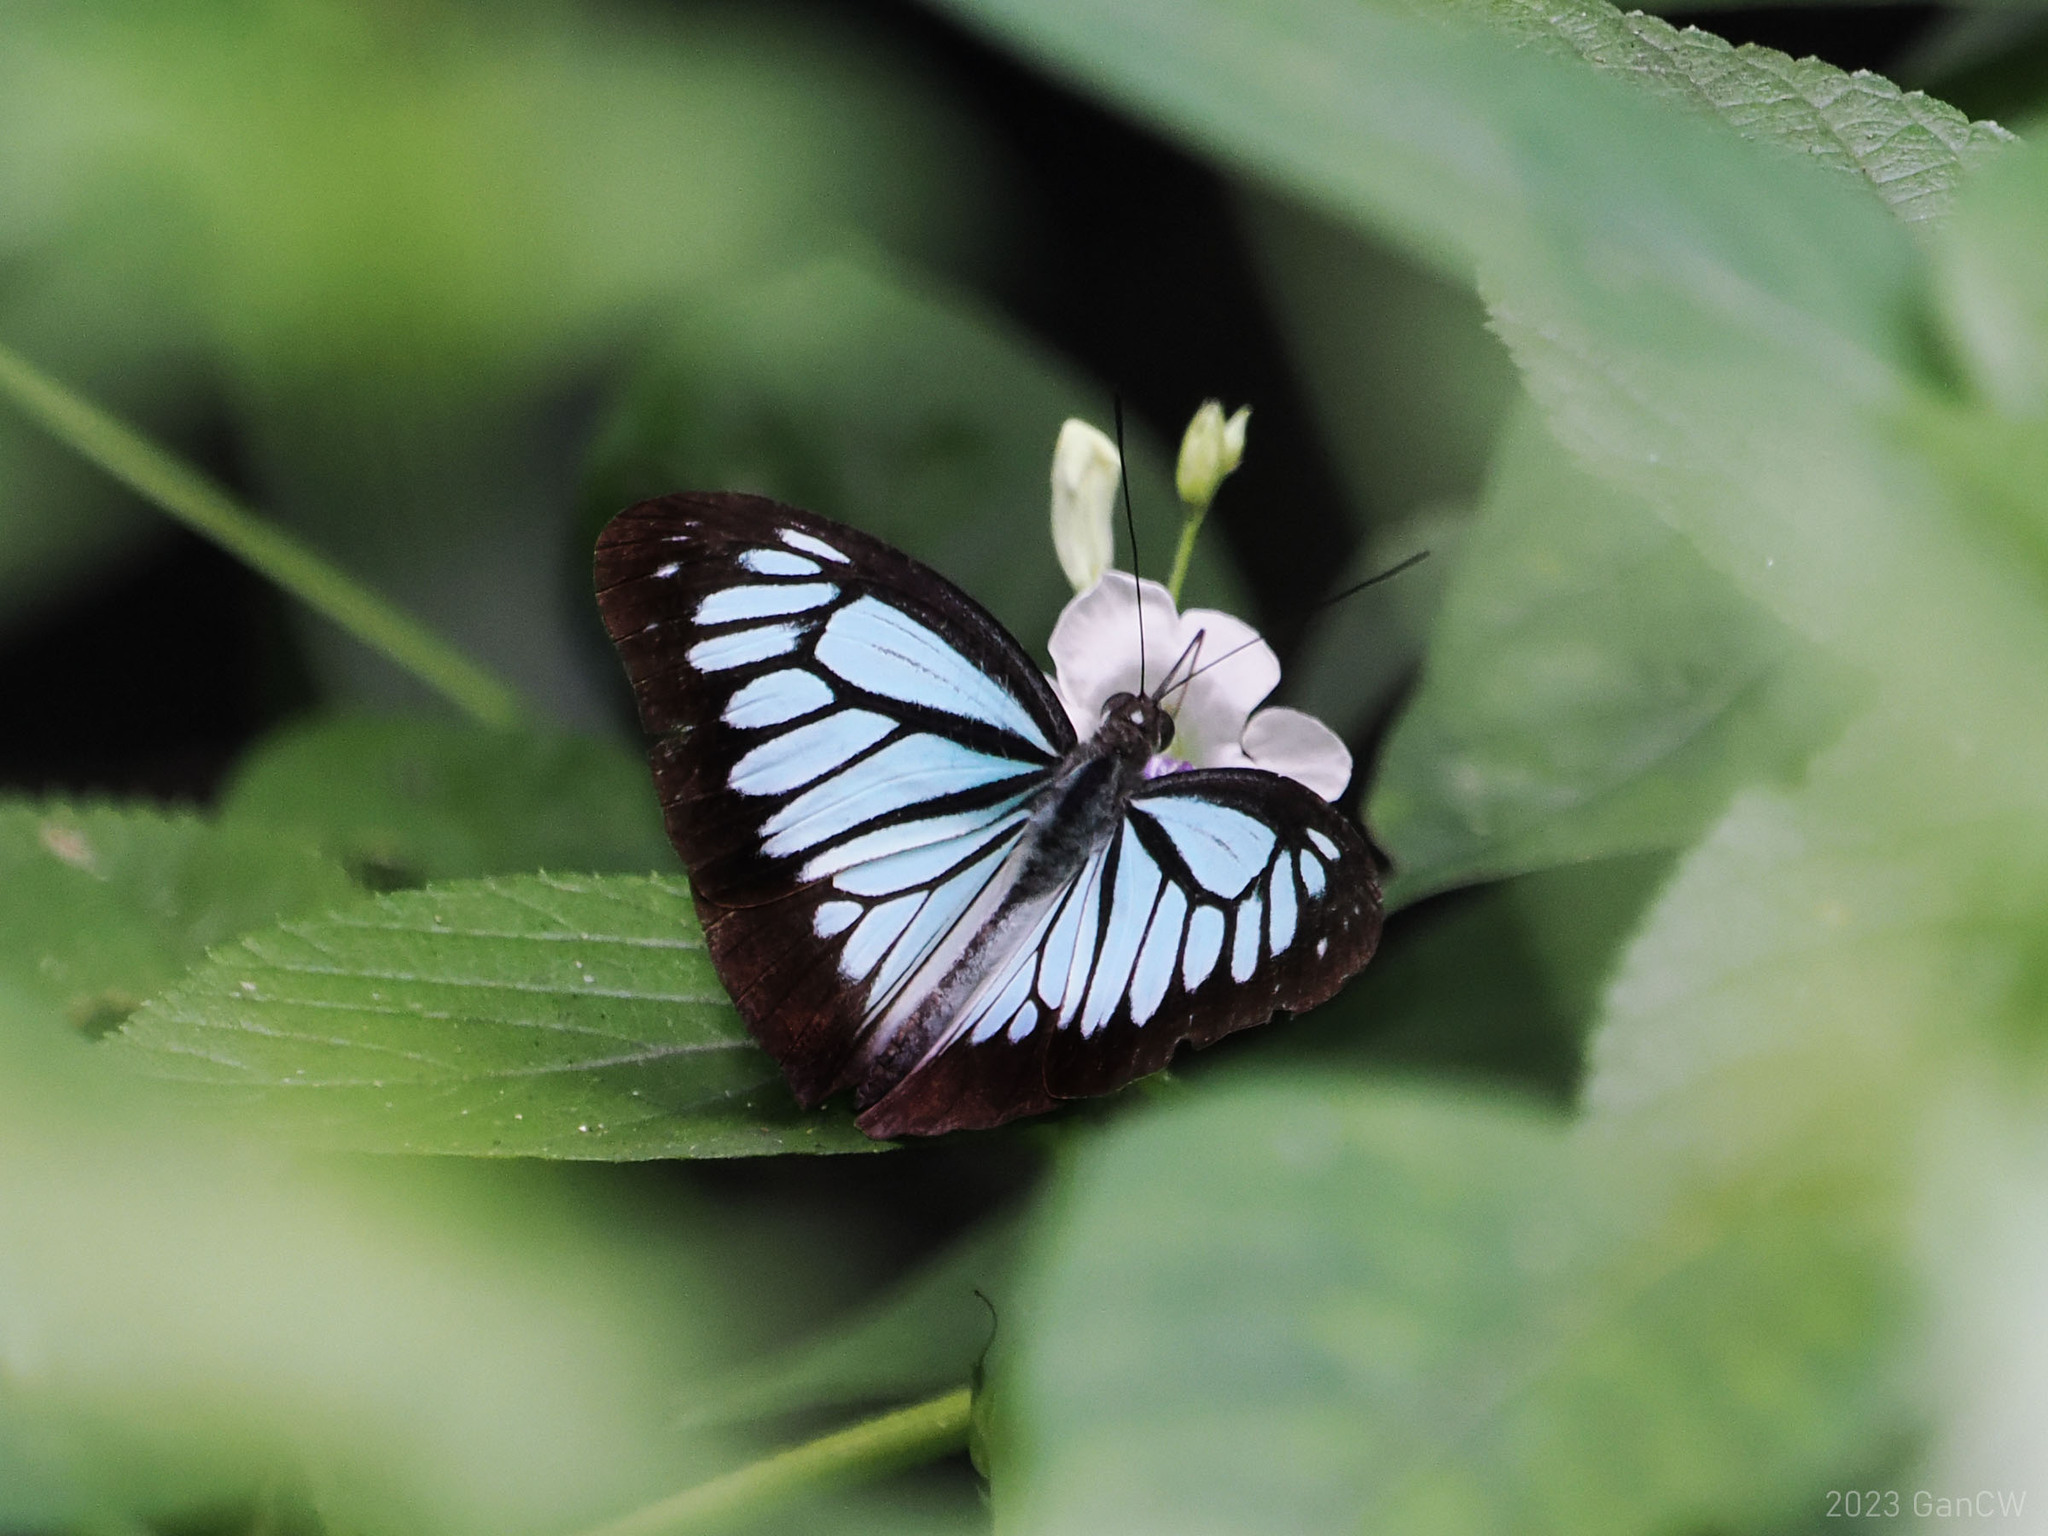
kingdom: Animalia
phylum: Arthropoda
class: Insecta
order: Lepidoptera
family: Pieridae
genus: Pareronia
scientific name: Pareronia boebera
